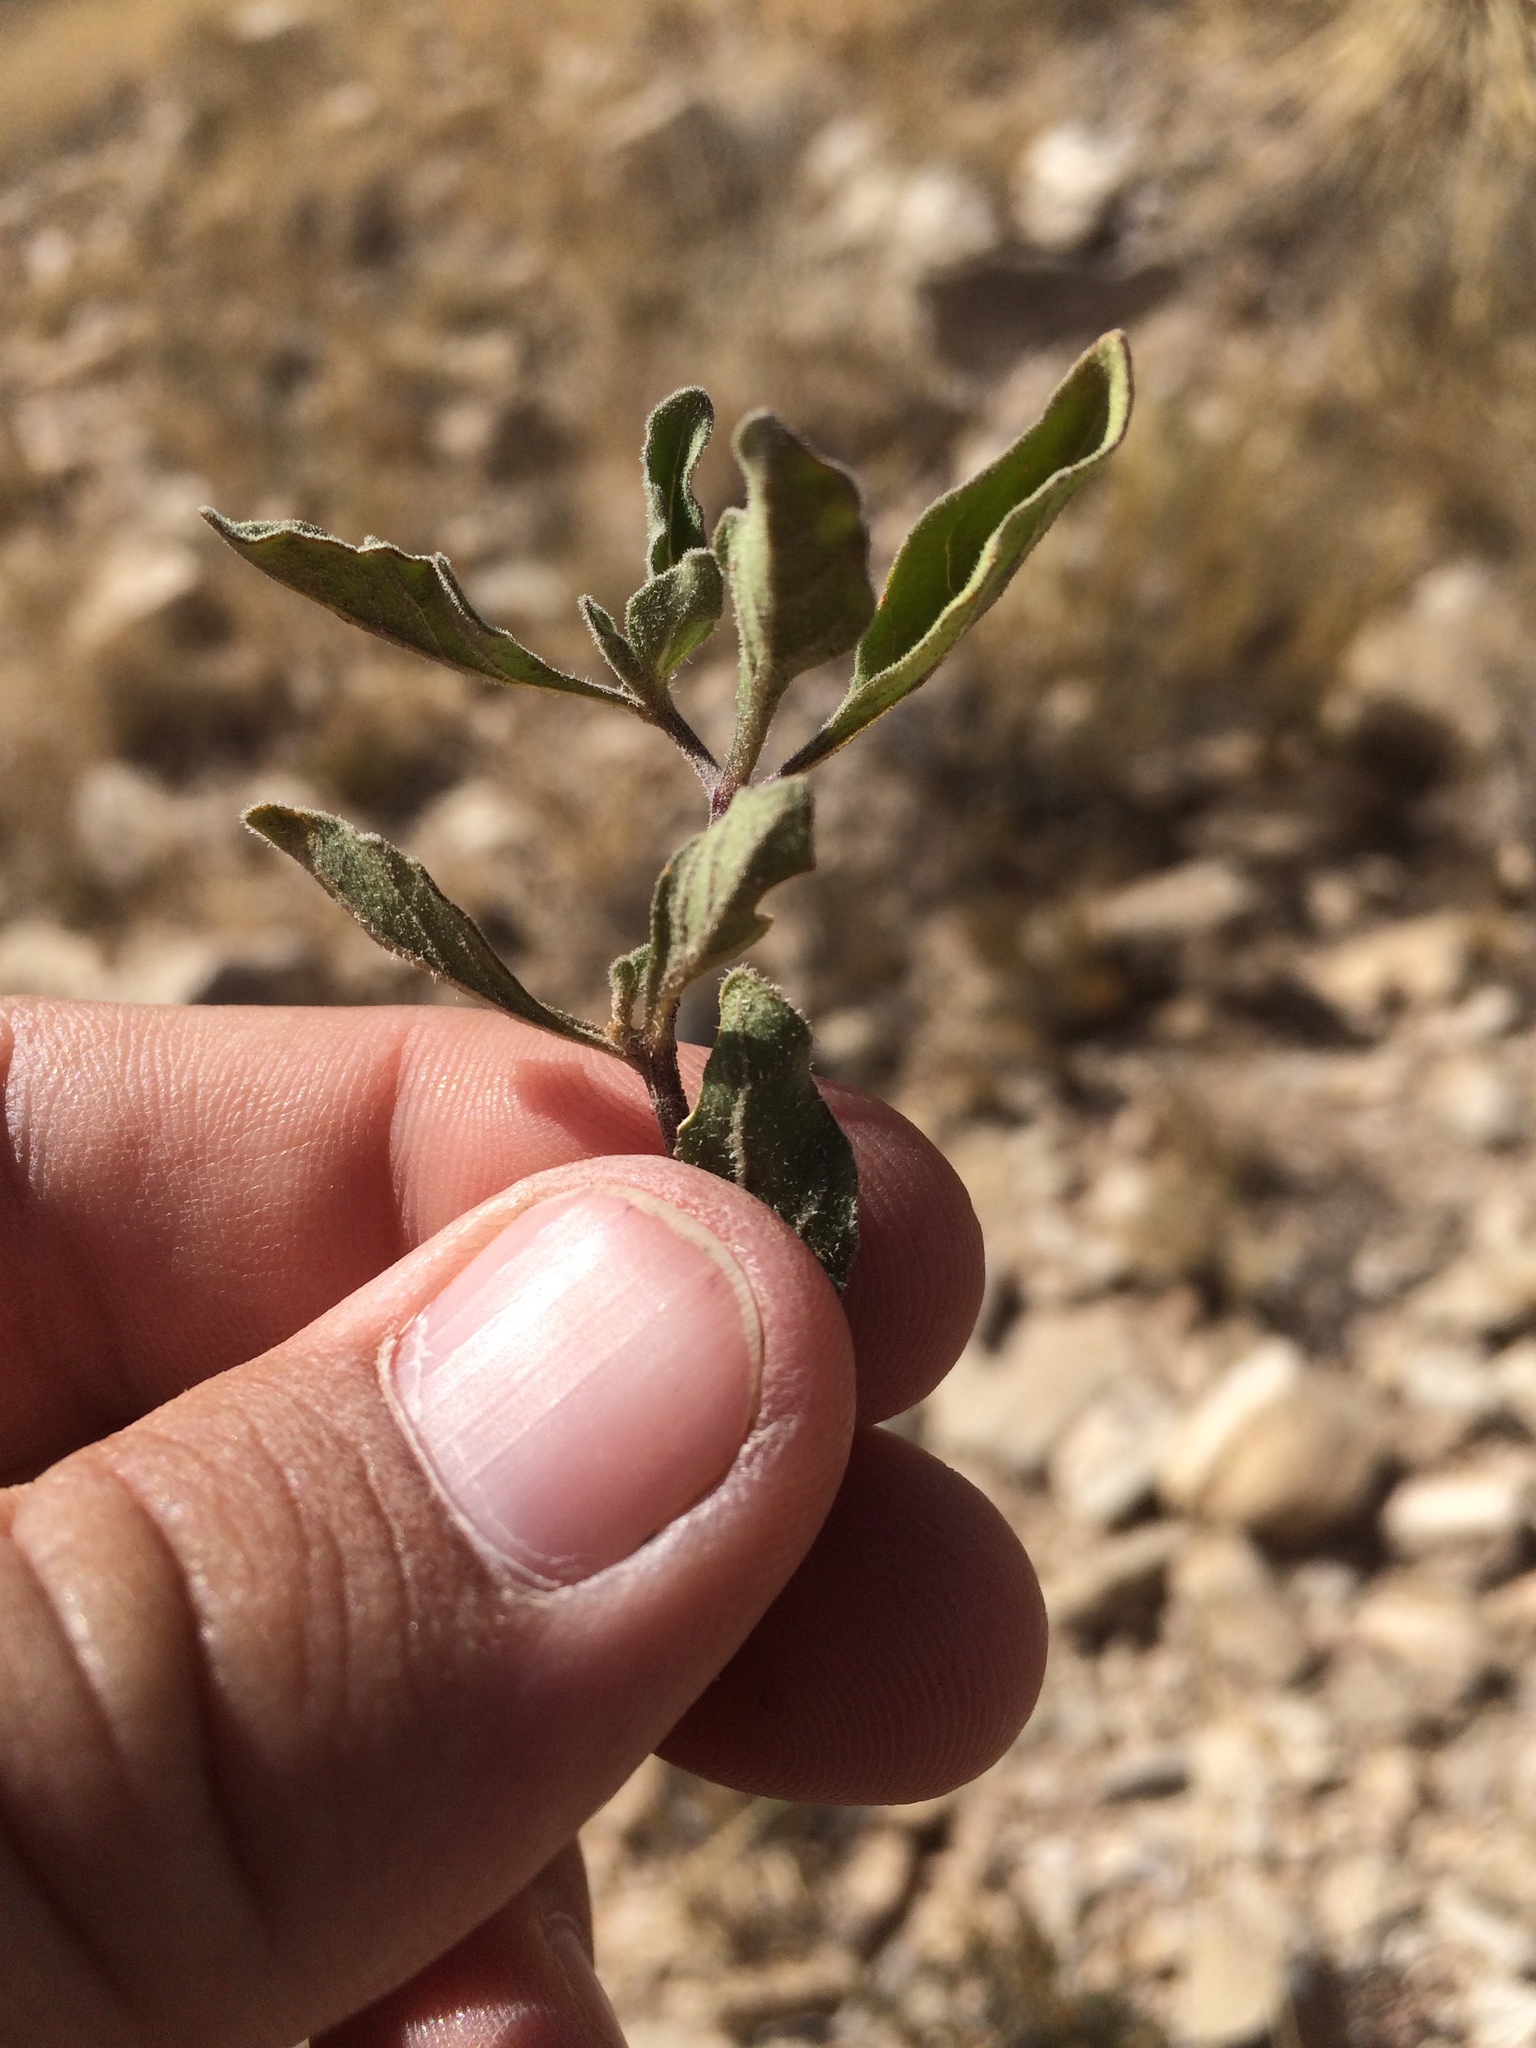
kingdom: Plantae
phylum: Tracheophyta
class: Magnoliopsida
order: Solanales
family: Solanaceae
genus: Chamaesaracha
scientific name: Chamaesaracha pallida
